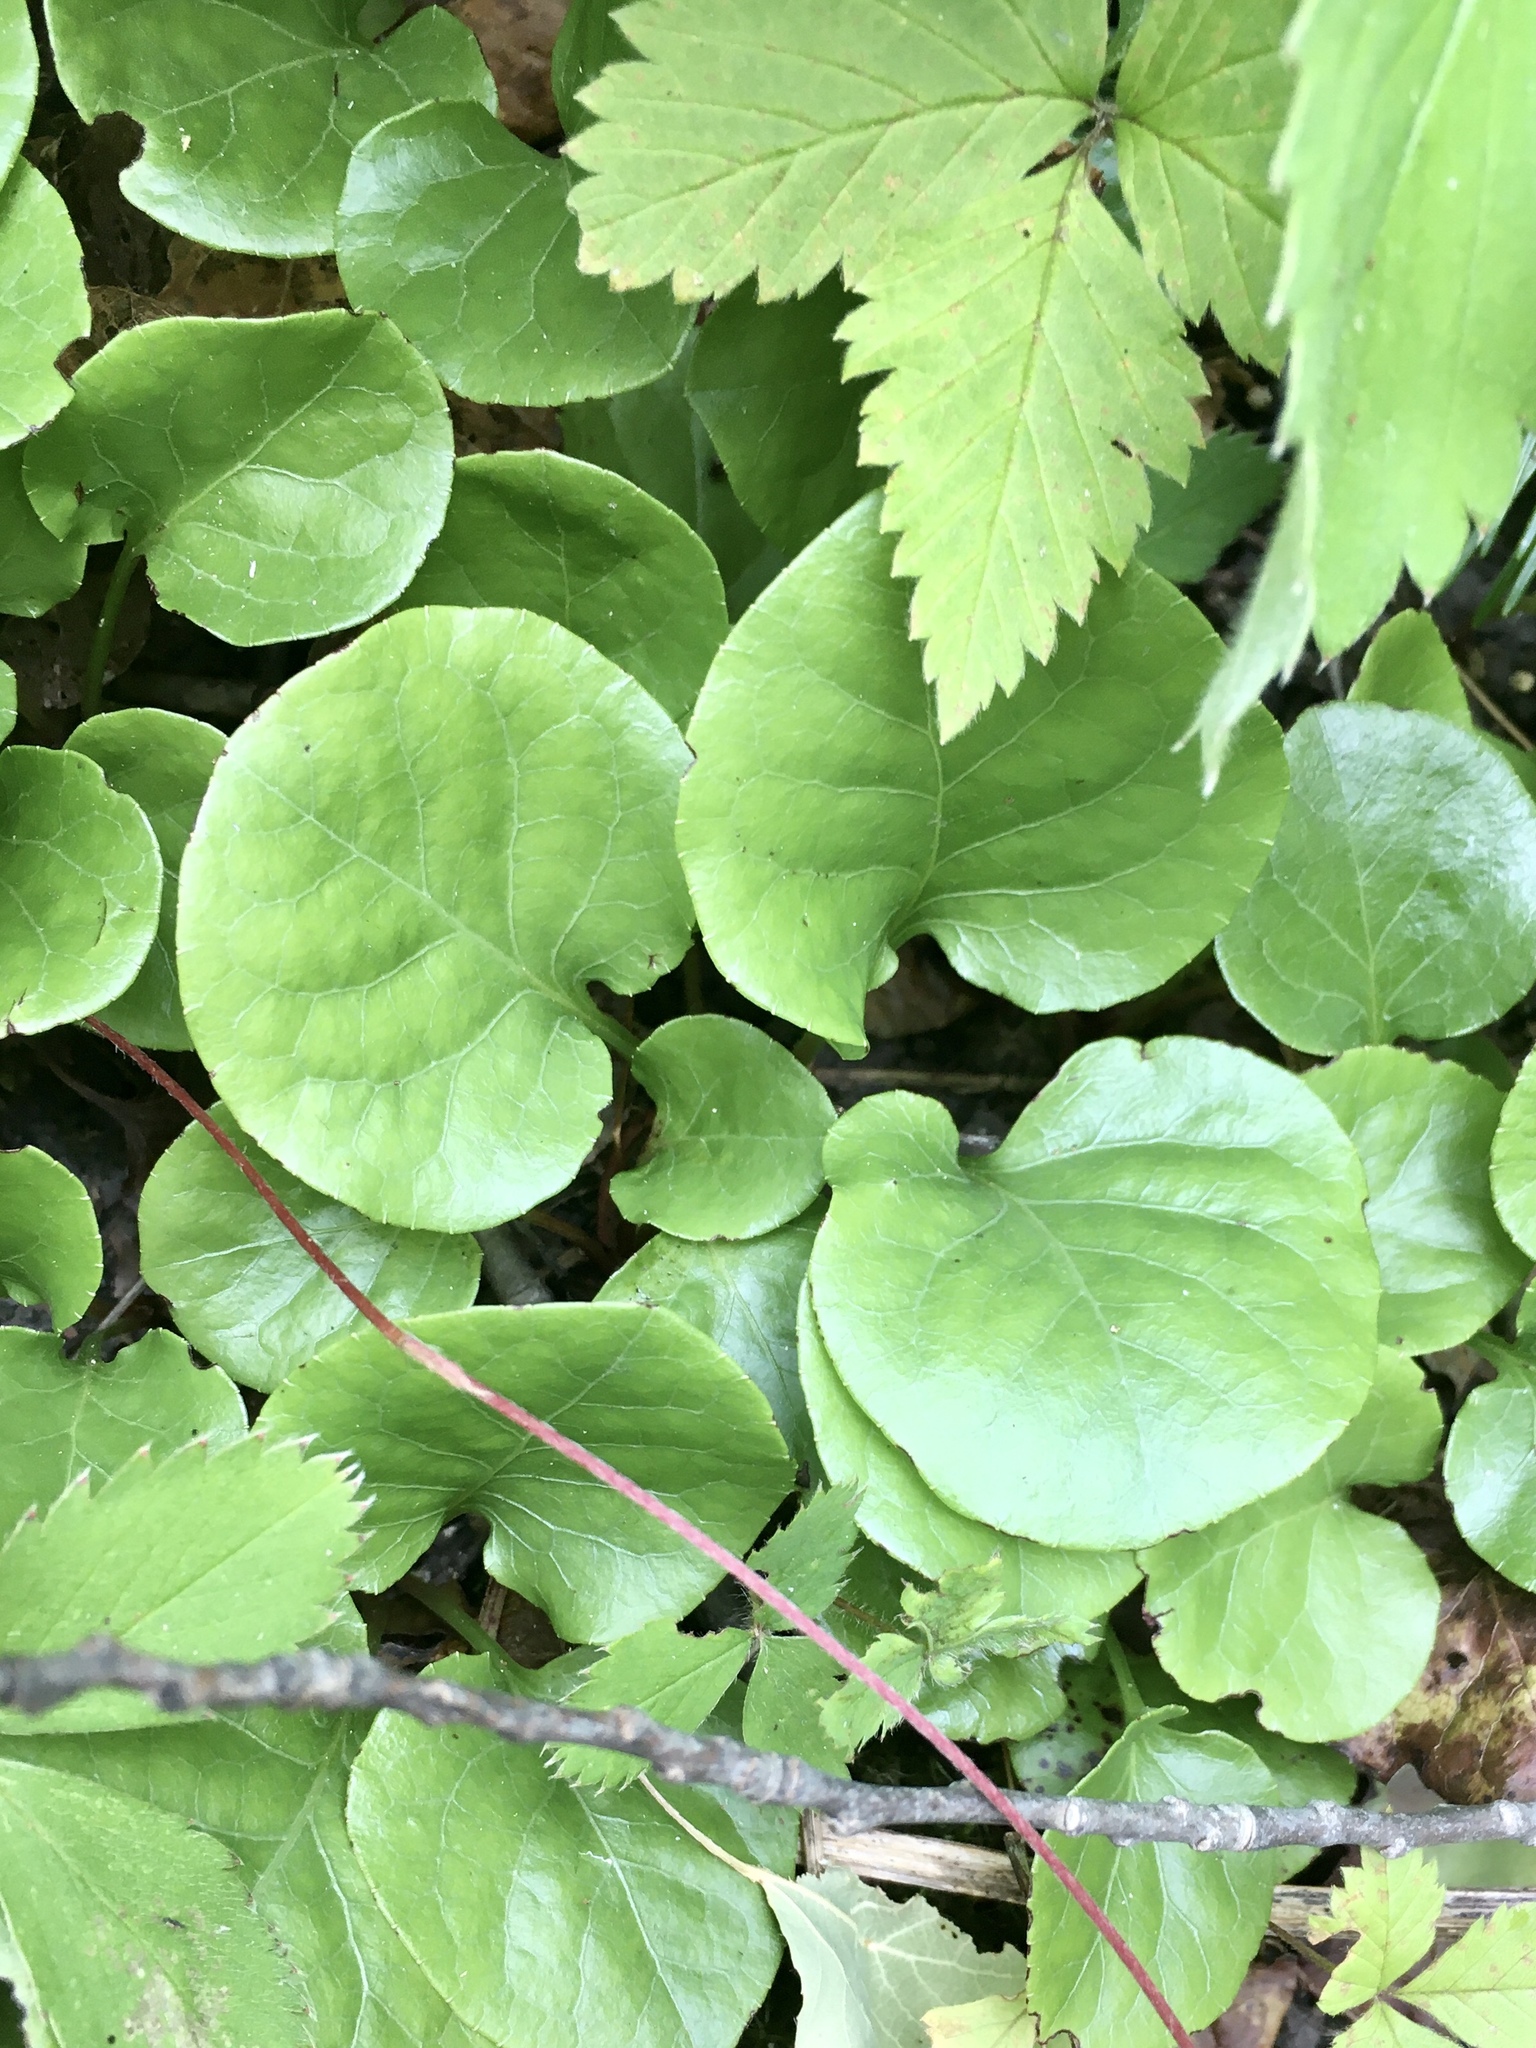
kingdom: Plantae
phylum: Tracheophyta
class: Magnoliopsida
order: Ericales
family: Ericaceae
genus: Pyrola
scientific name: Pyrola asarifolia
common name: Bog wintergreen
